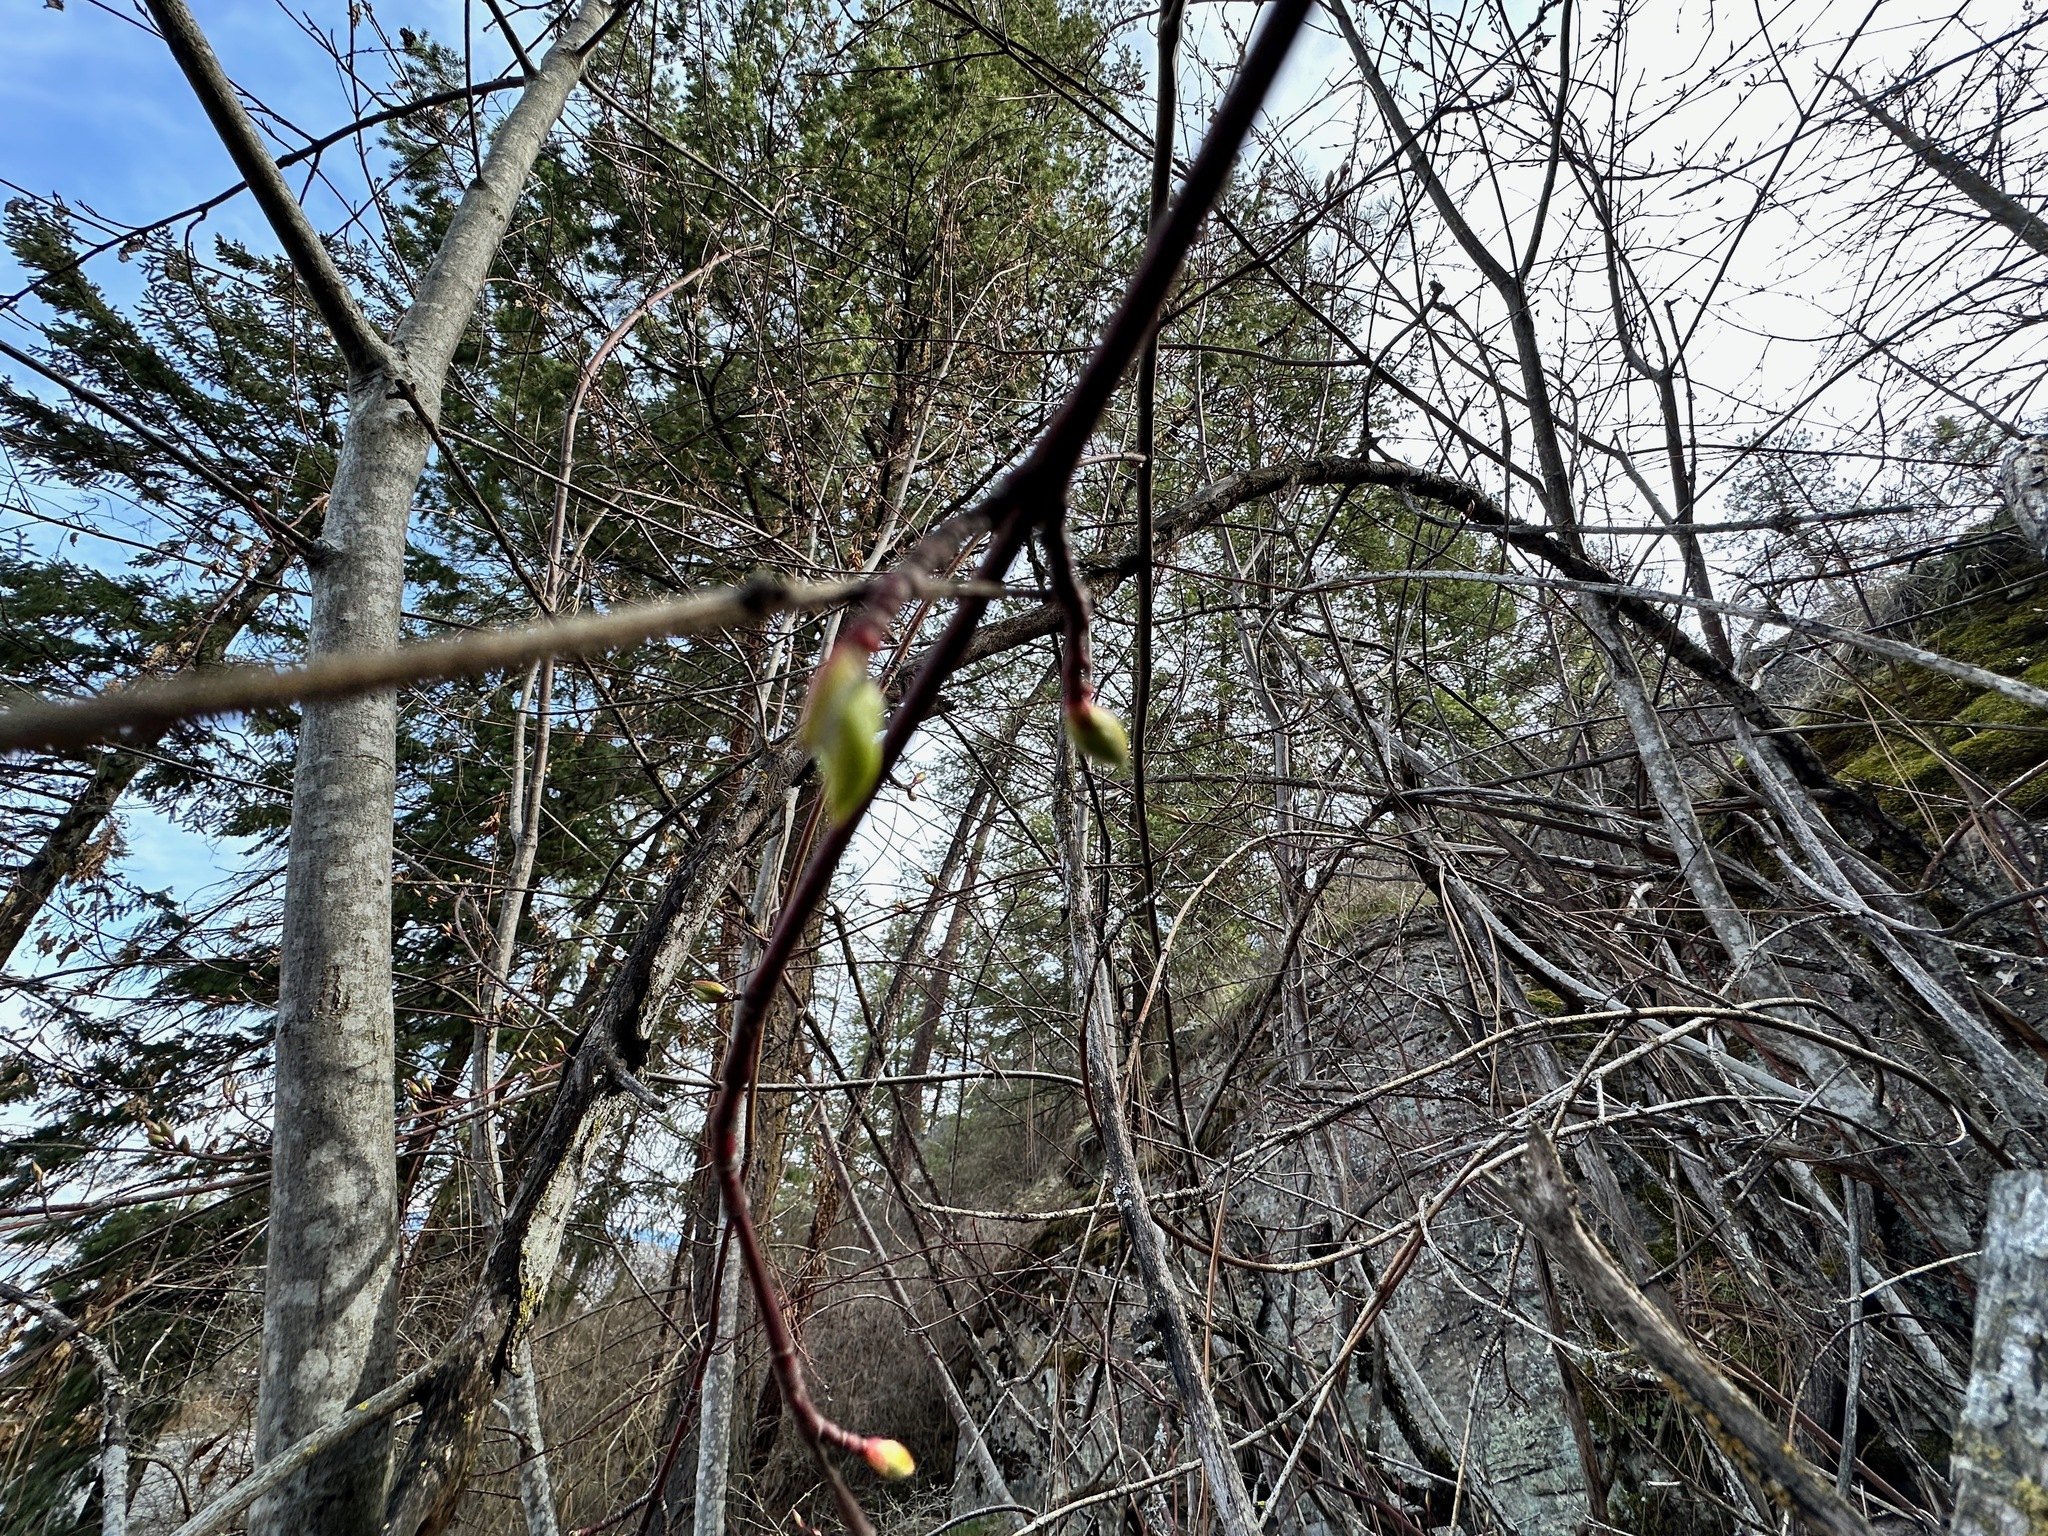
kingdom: Plantae
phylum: Tracheophyta
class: Magnoliopsida
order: Sapindales
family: Sapindaceae
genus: Acer
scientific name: Acer glabrum
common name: Rocky mountain maple
